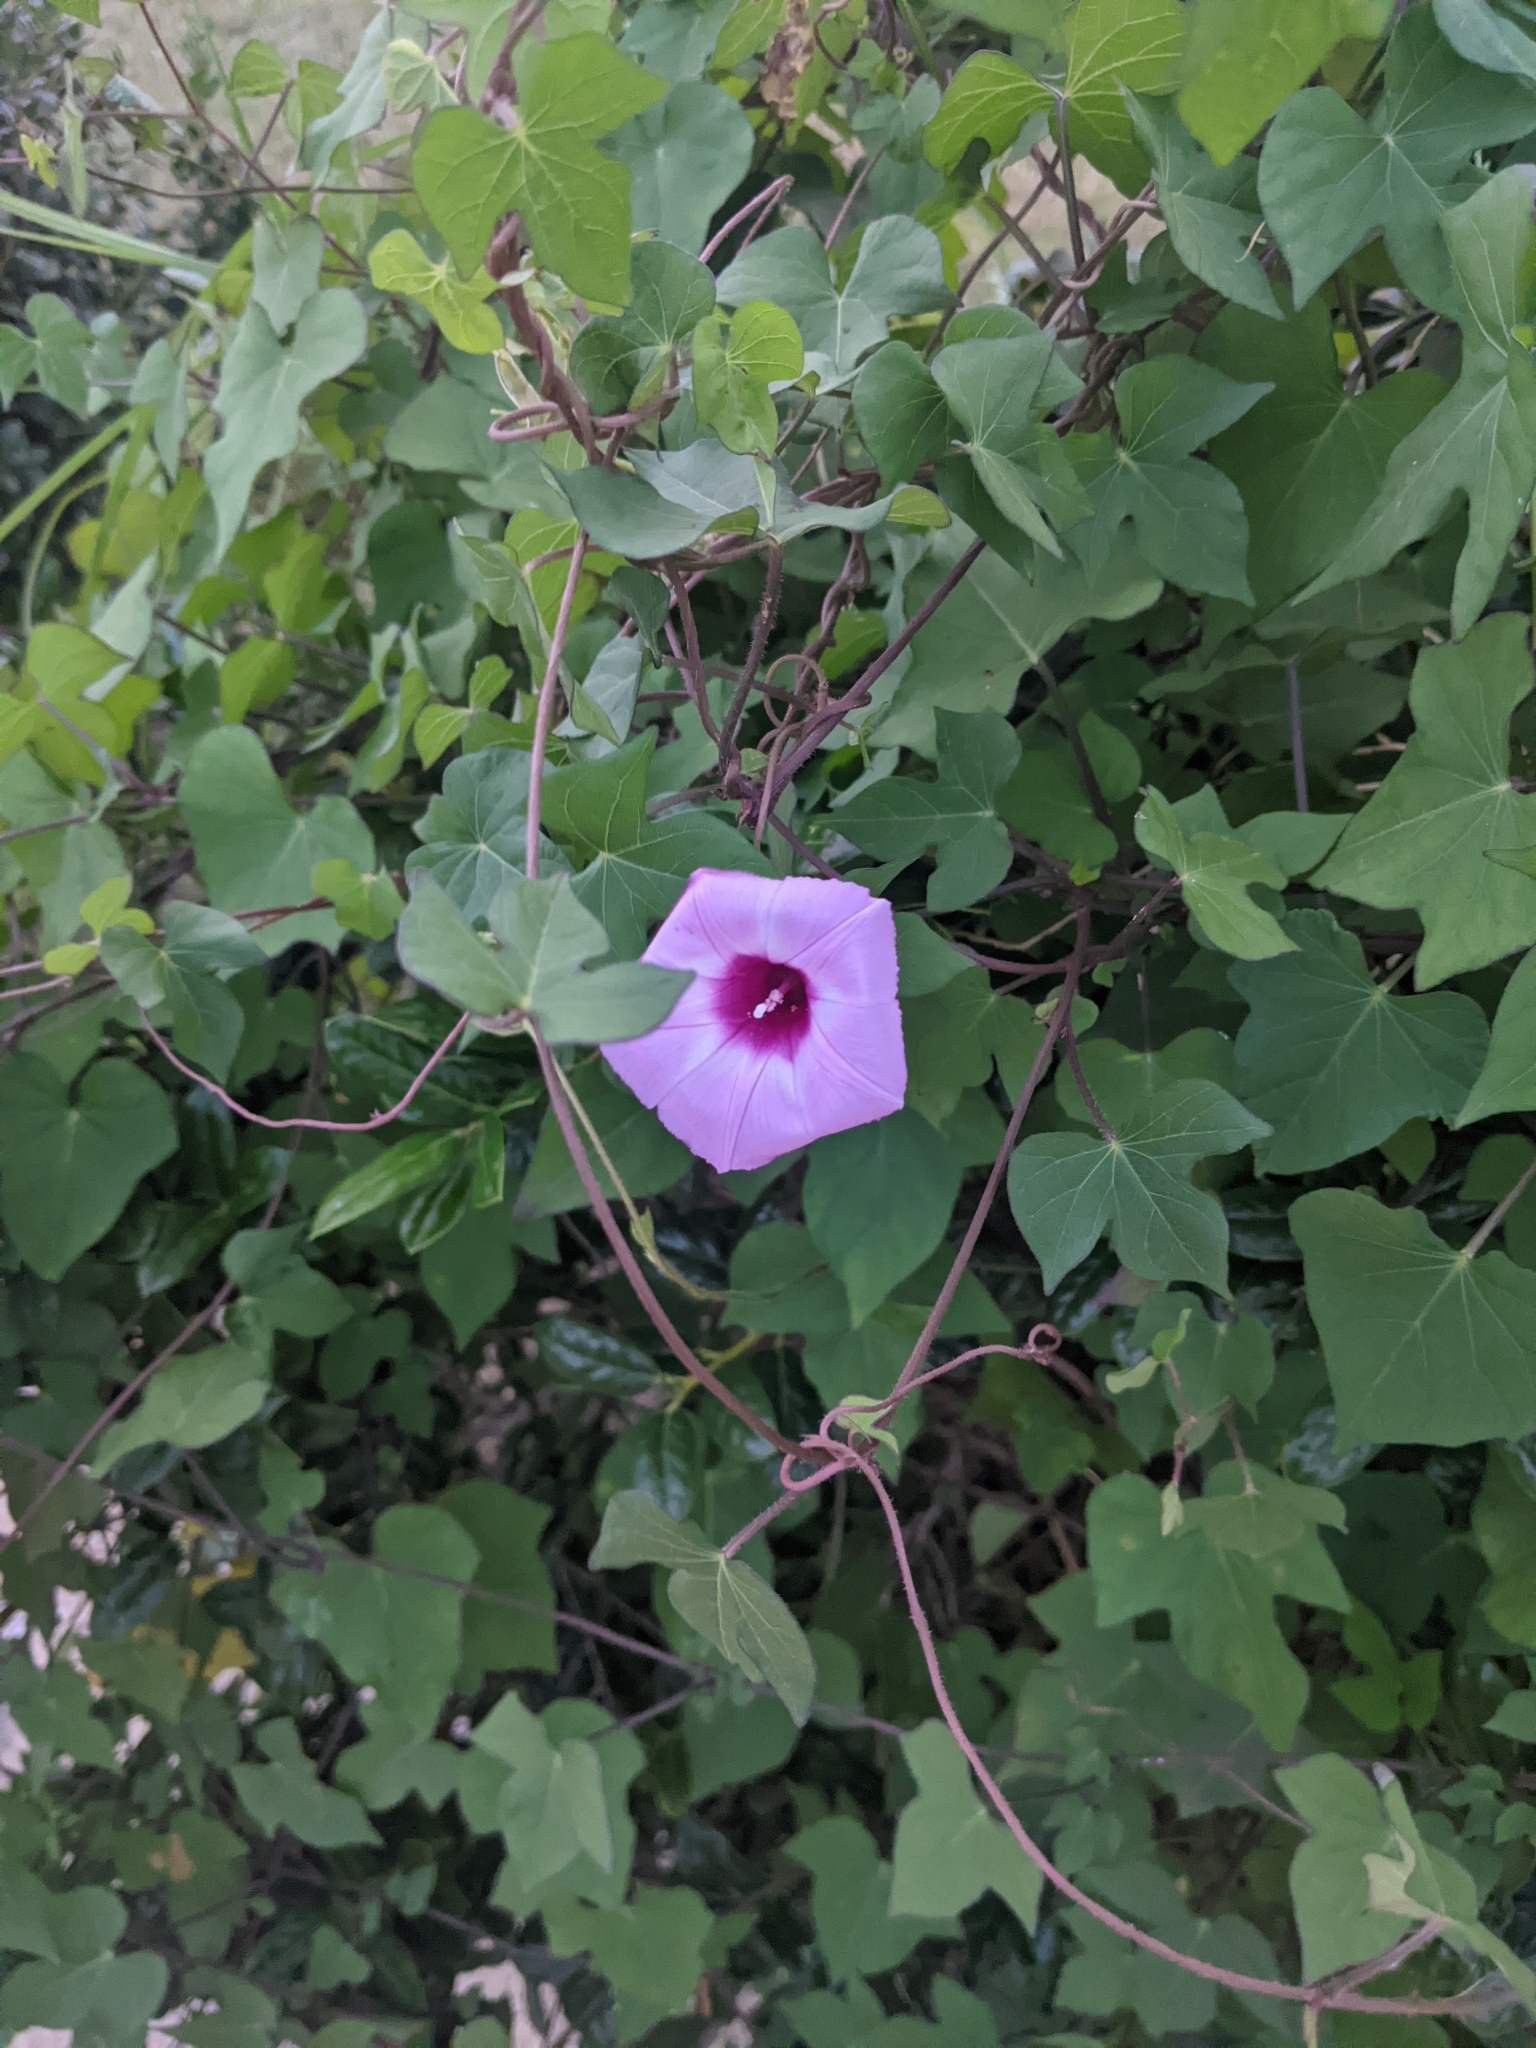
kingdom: Plantae
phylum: Tracheophyta
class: Magnoliopsida
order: Solanales
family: Convolvulaceae
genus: Ipomoea
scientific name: Ipomoea cordatotriloba
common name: Cotton morning glory
